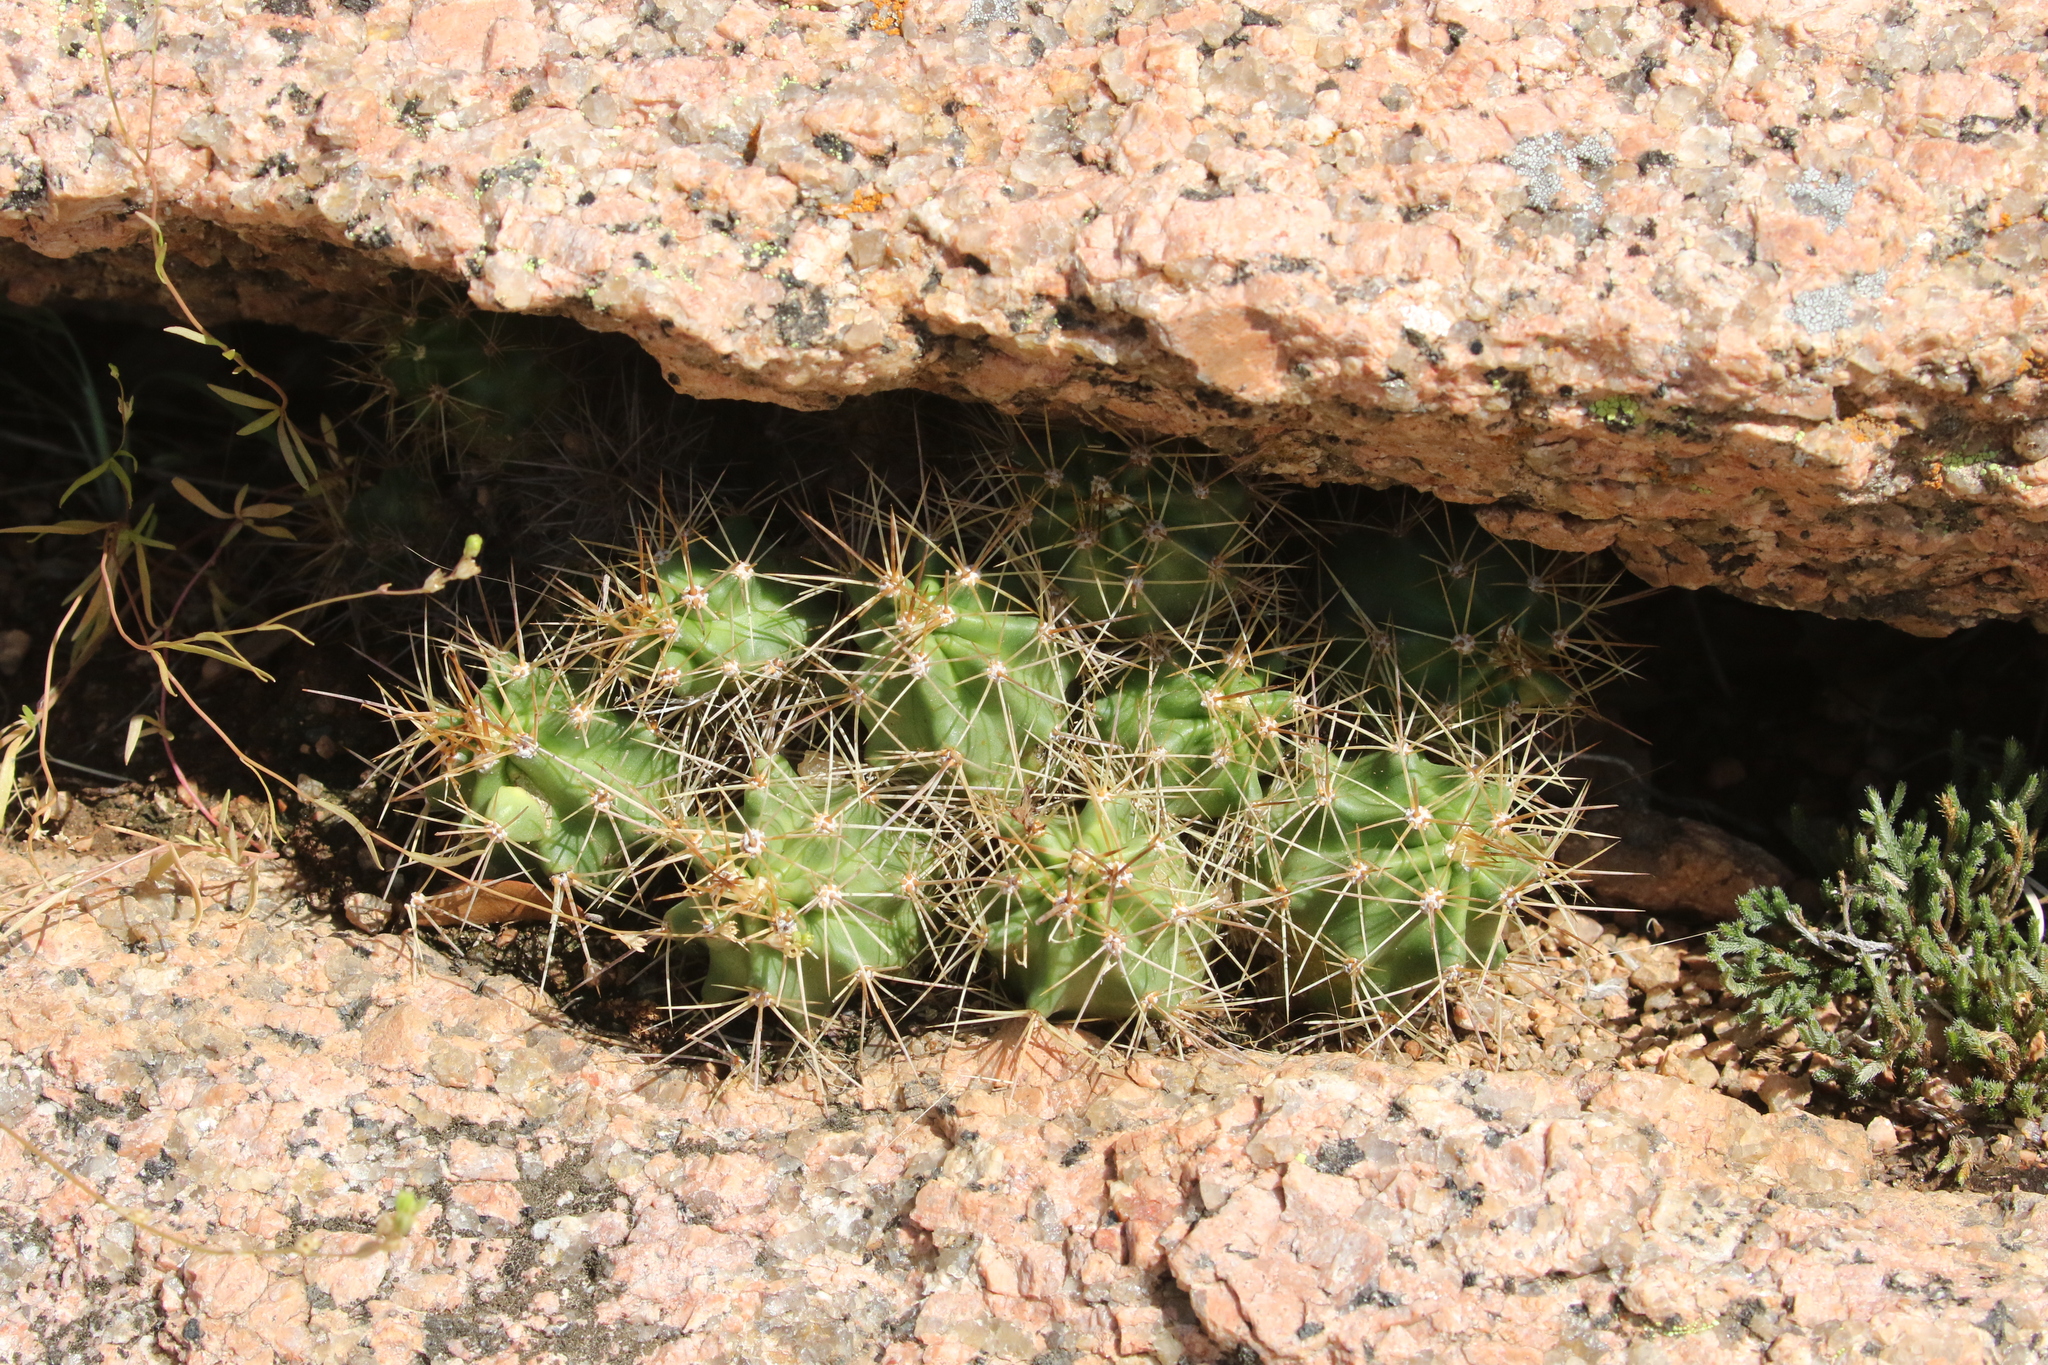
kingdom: Plantae
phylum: Tracheophyta
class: Magnoliopsida
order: Caryophyllales
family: Cactaceae
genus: Echinocereus
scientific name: Echinocereus coccineus
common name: Scarlet hedgehog cactus
